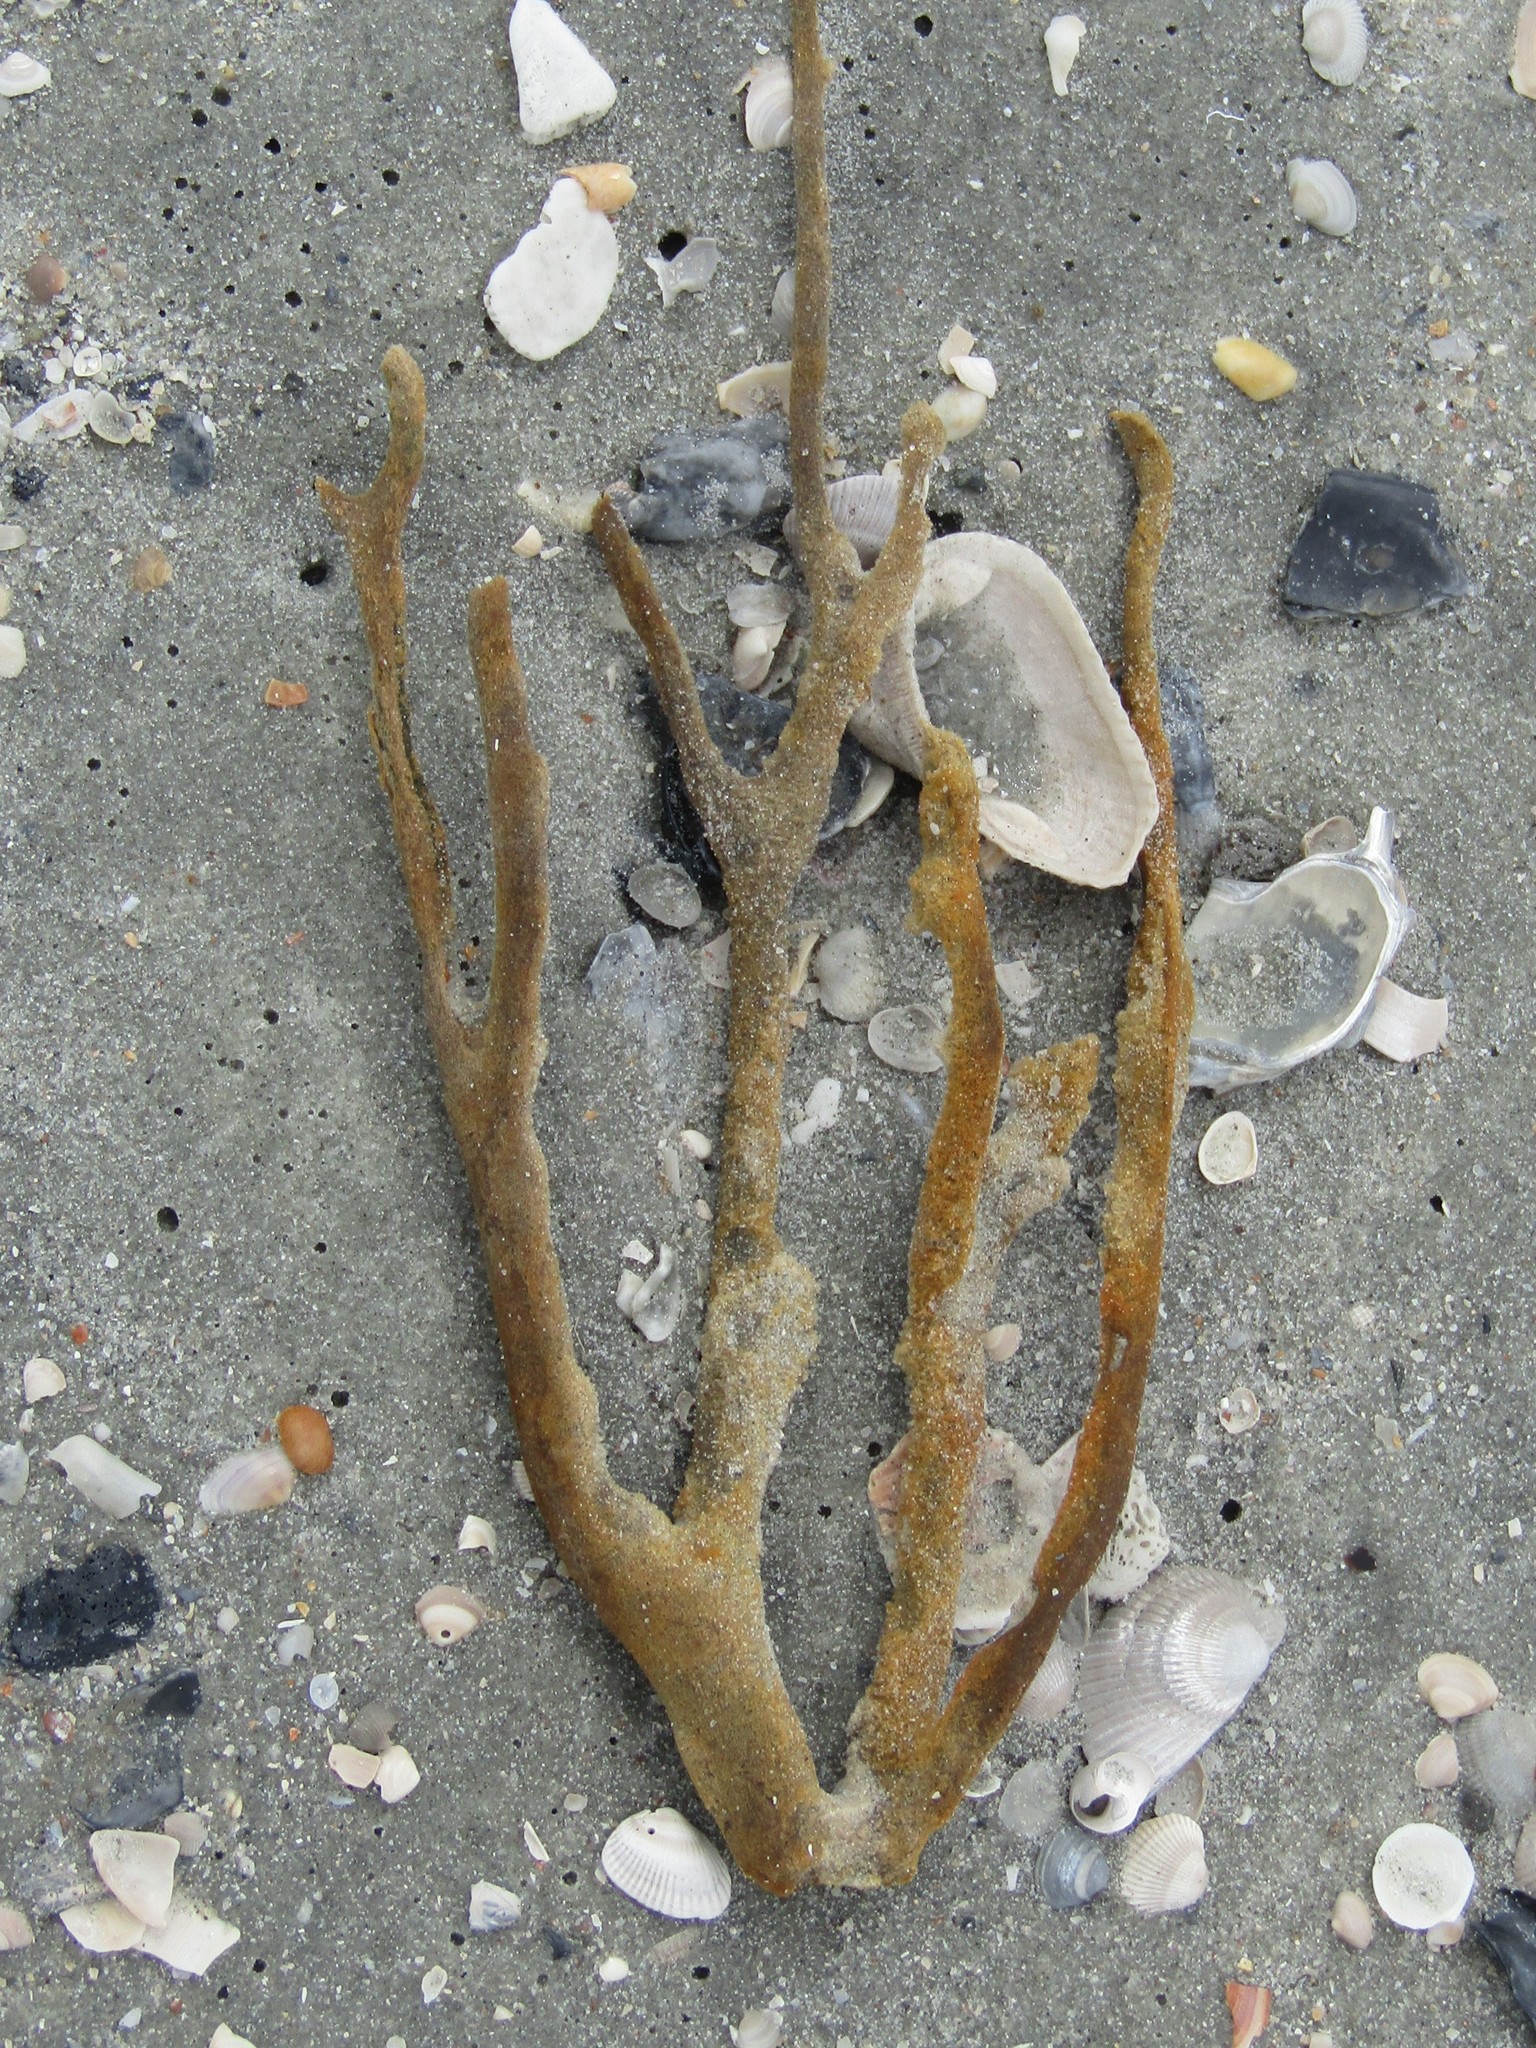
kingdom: Animalia
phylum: Porifera
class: Demospongiae
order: Haplosclerida
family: Chalinidae
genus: Haliclona
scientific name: Haliclona oculata
